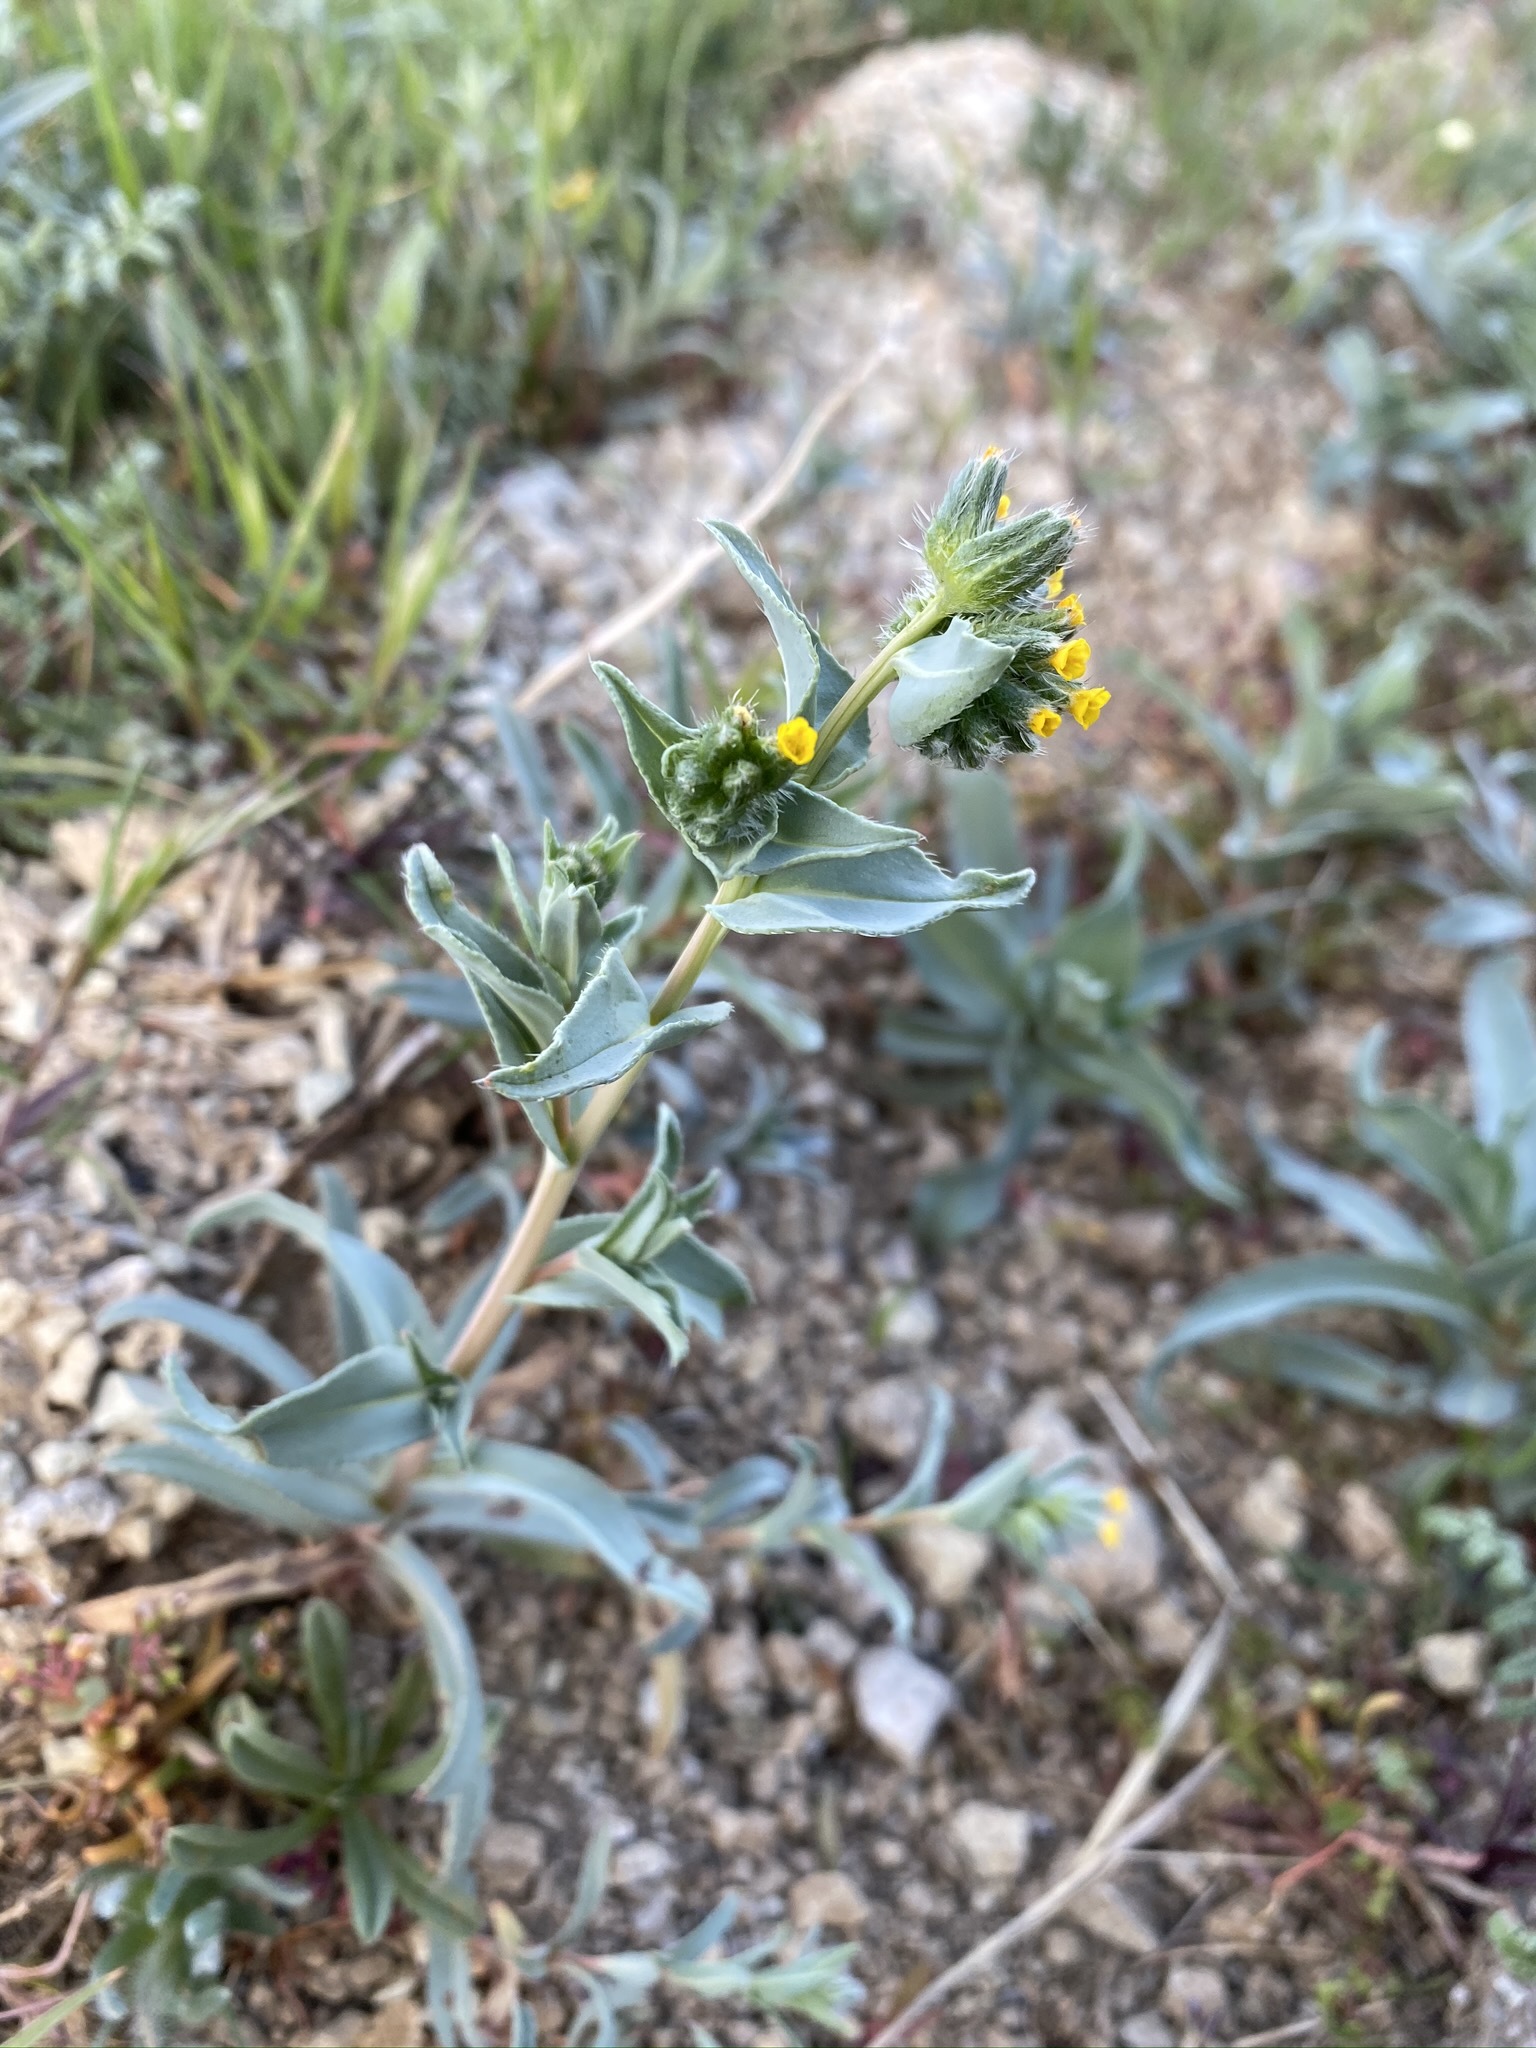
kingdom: Plantae
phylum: Tracheophyta
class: Magnoliopsida
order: Boraginales
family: Boraginaceae
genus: Amsinckia
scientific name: Amsinckia vernicosa
